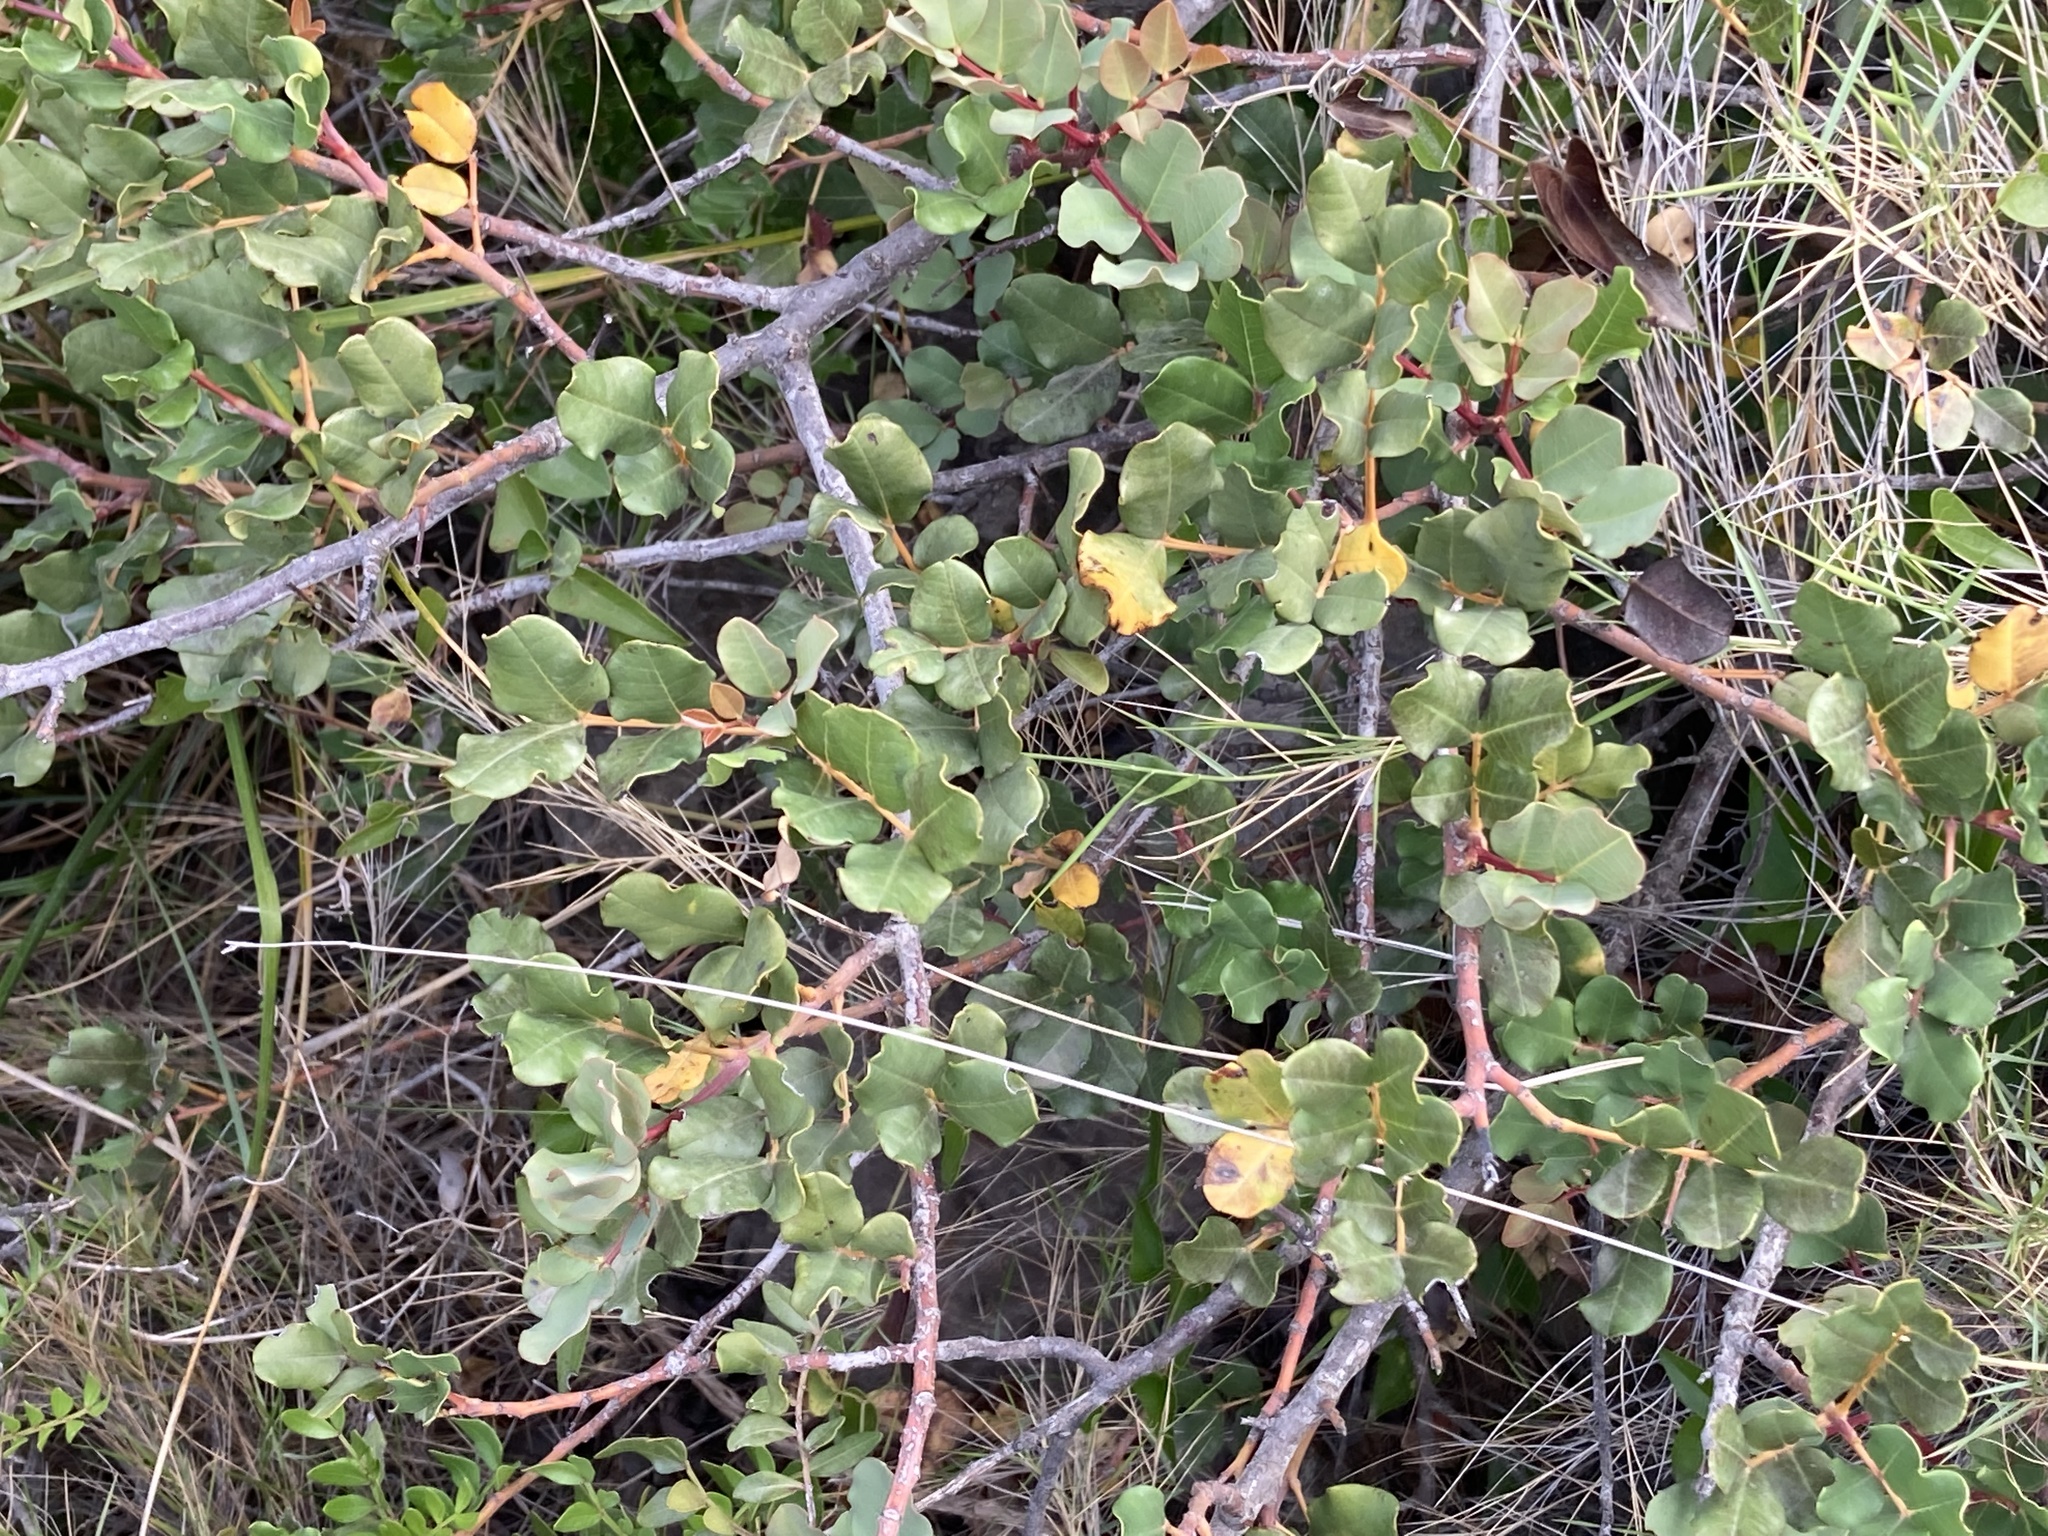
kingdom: Plantae
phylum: Tracheophyta
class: Magnoliopsida
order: Fabales
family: Fabaceae
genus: Ceratonia
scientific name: Ceratonia siliqua
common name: Carob
